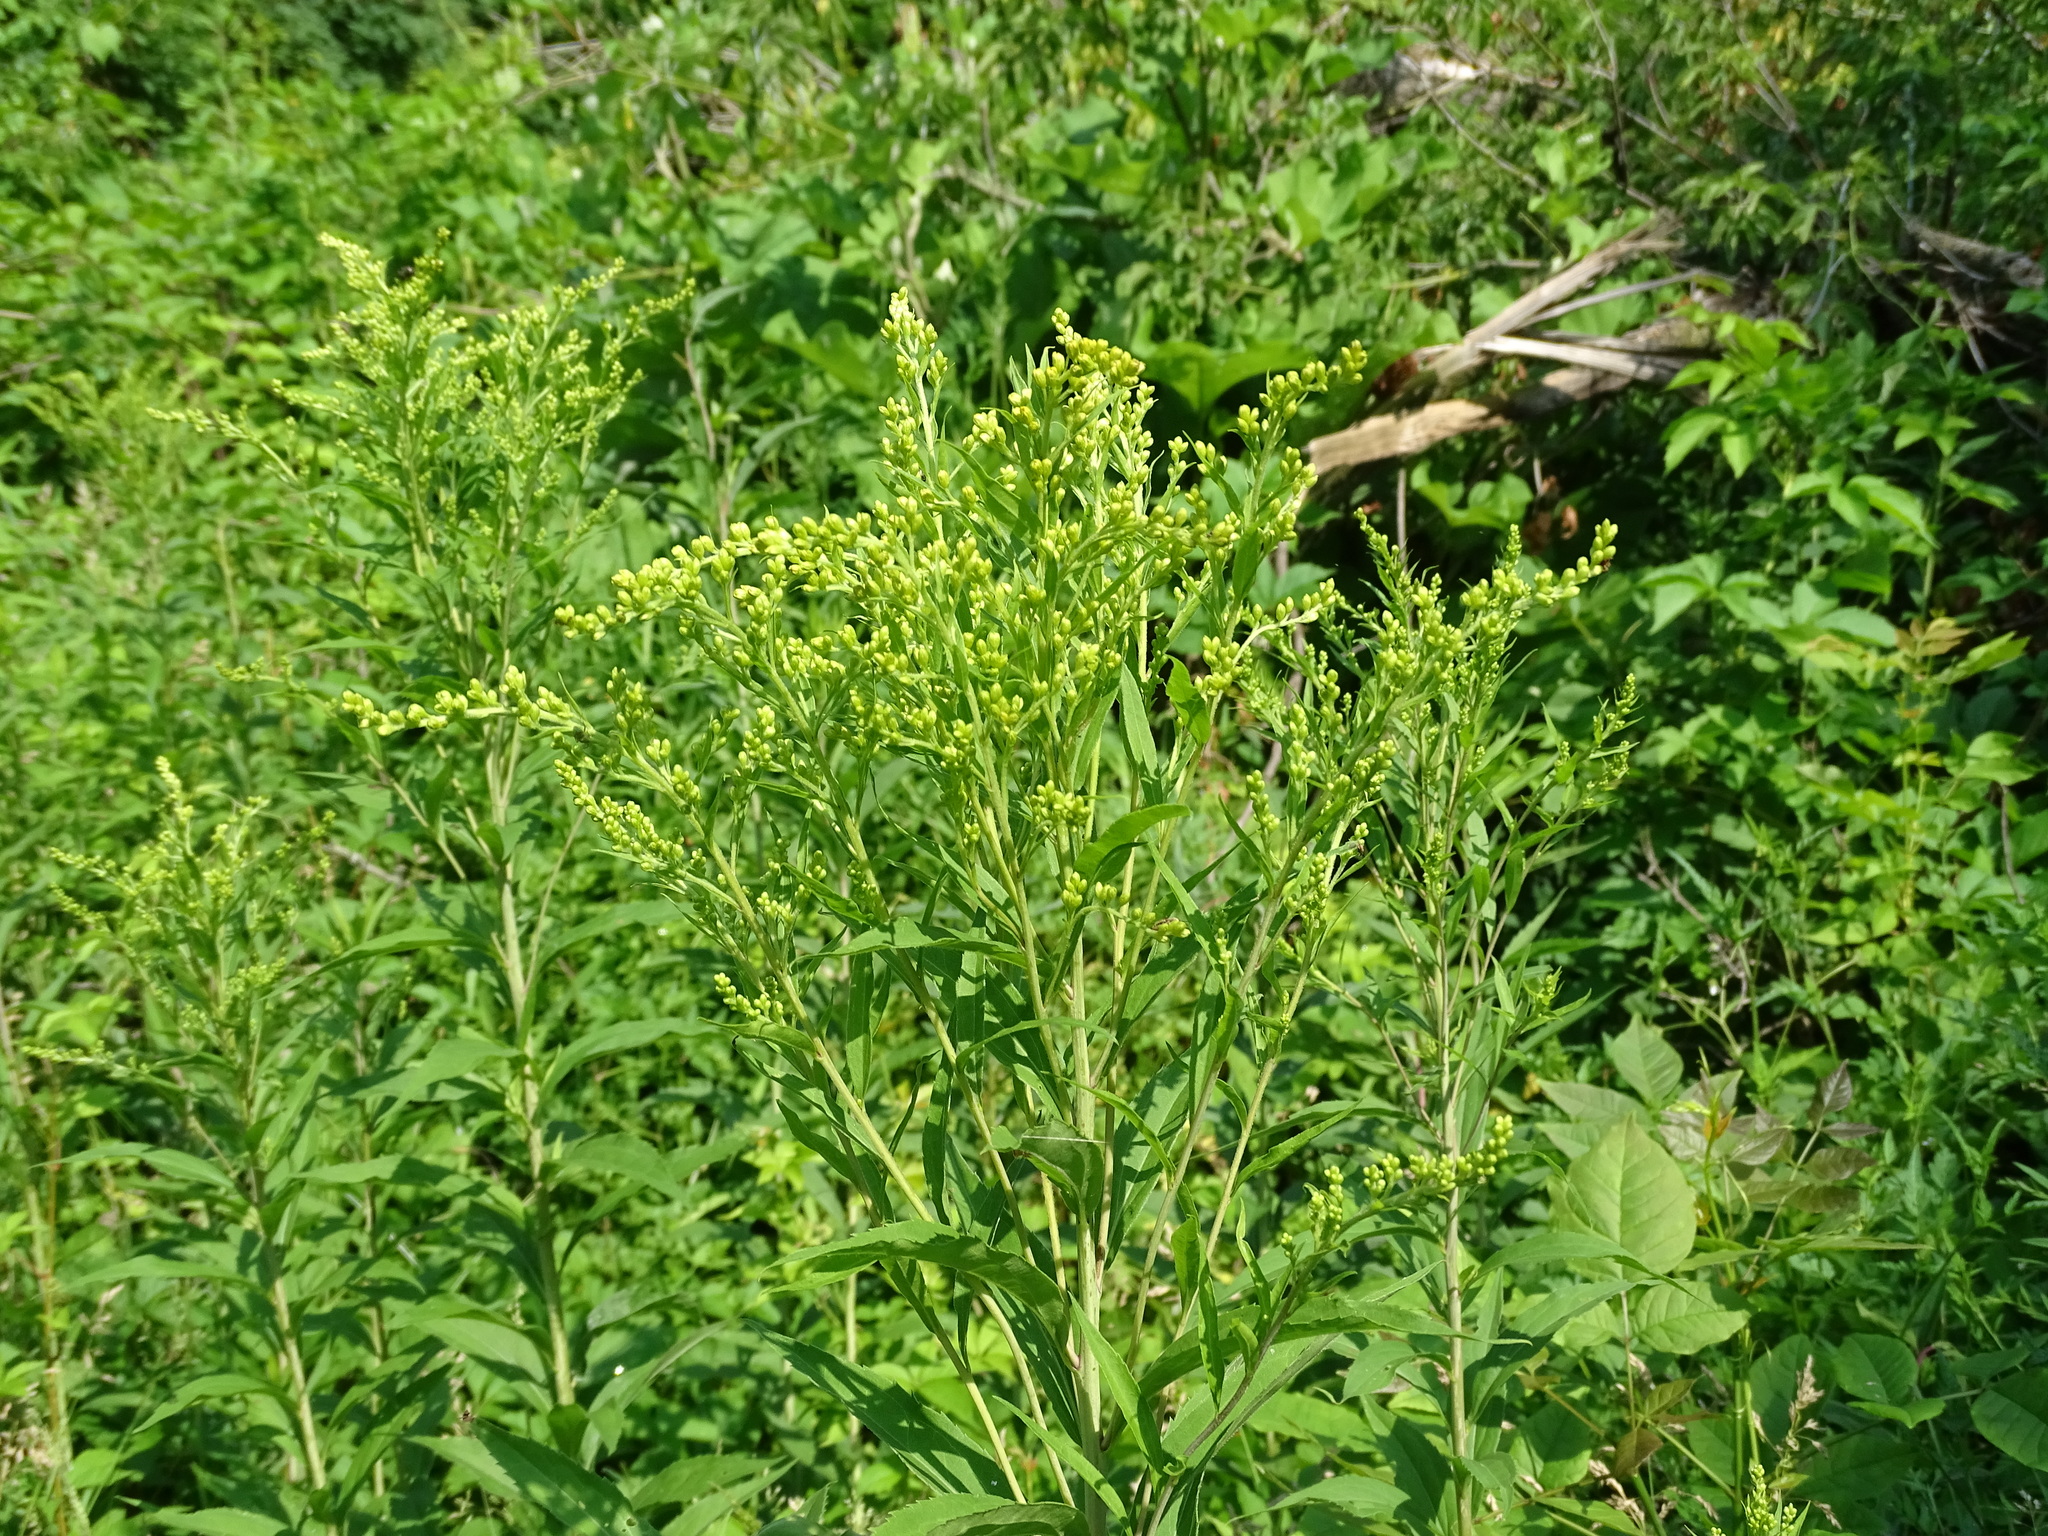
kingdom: Plantae
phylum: Tracheophyta
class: Magnoliopsida
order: Asterales
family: Asteraceae
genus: Solidago
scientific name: Solidago gigantea
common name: Giant goldenrod
